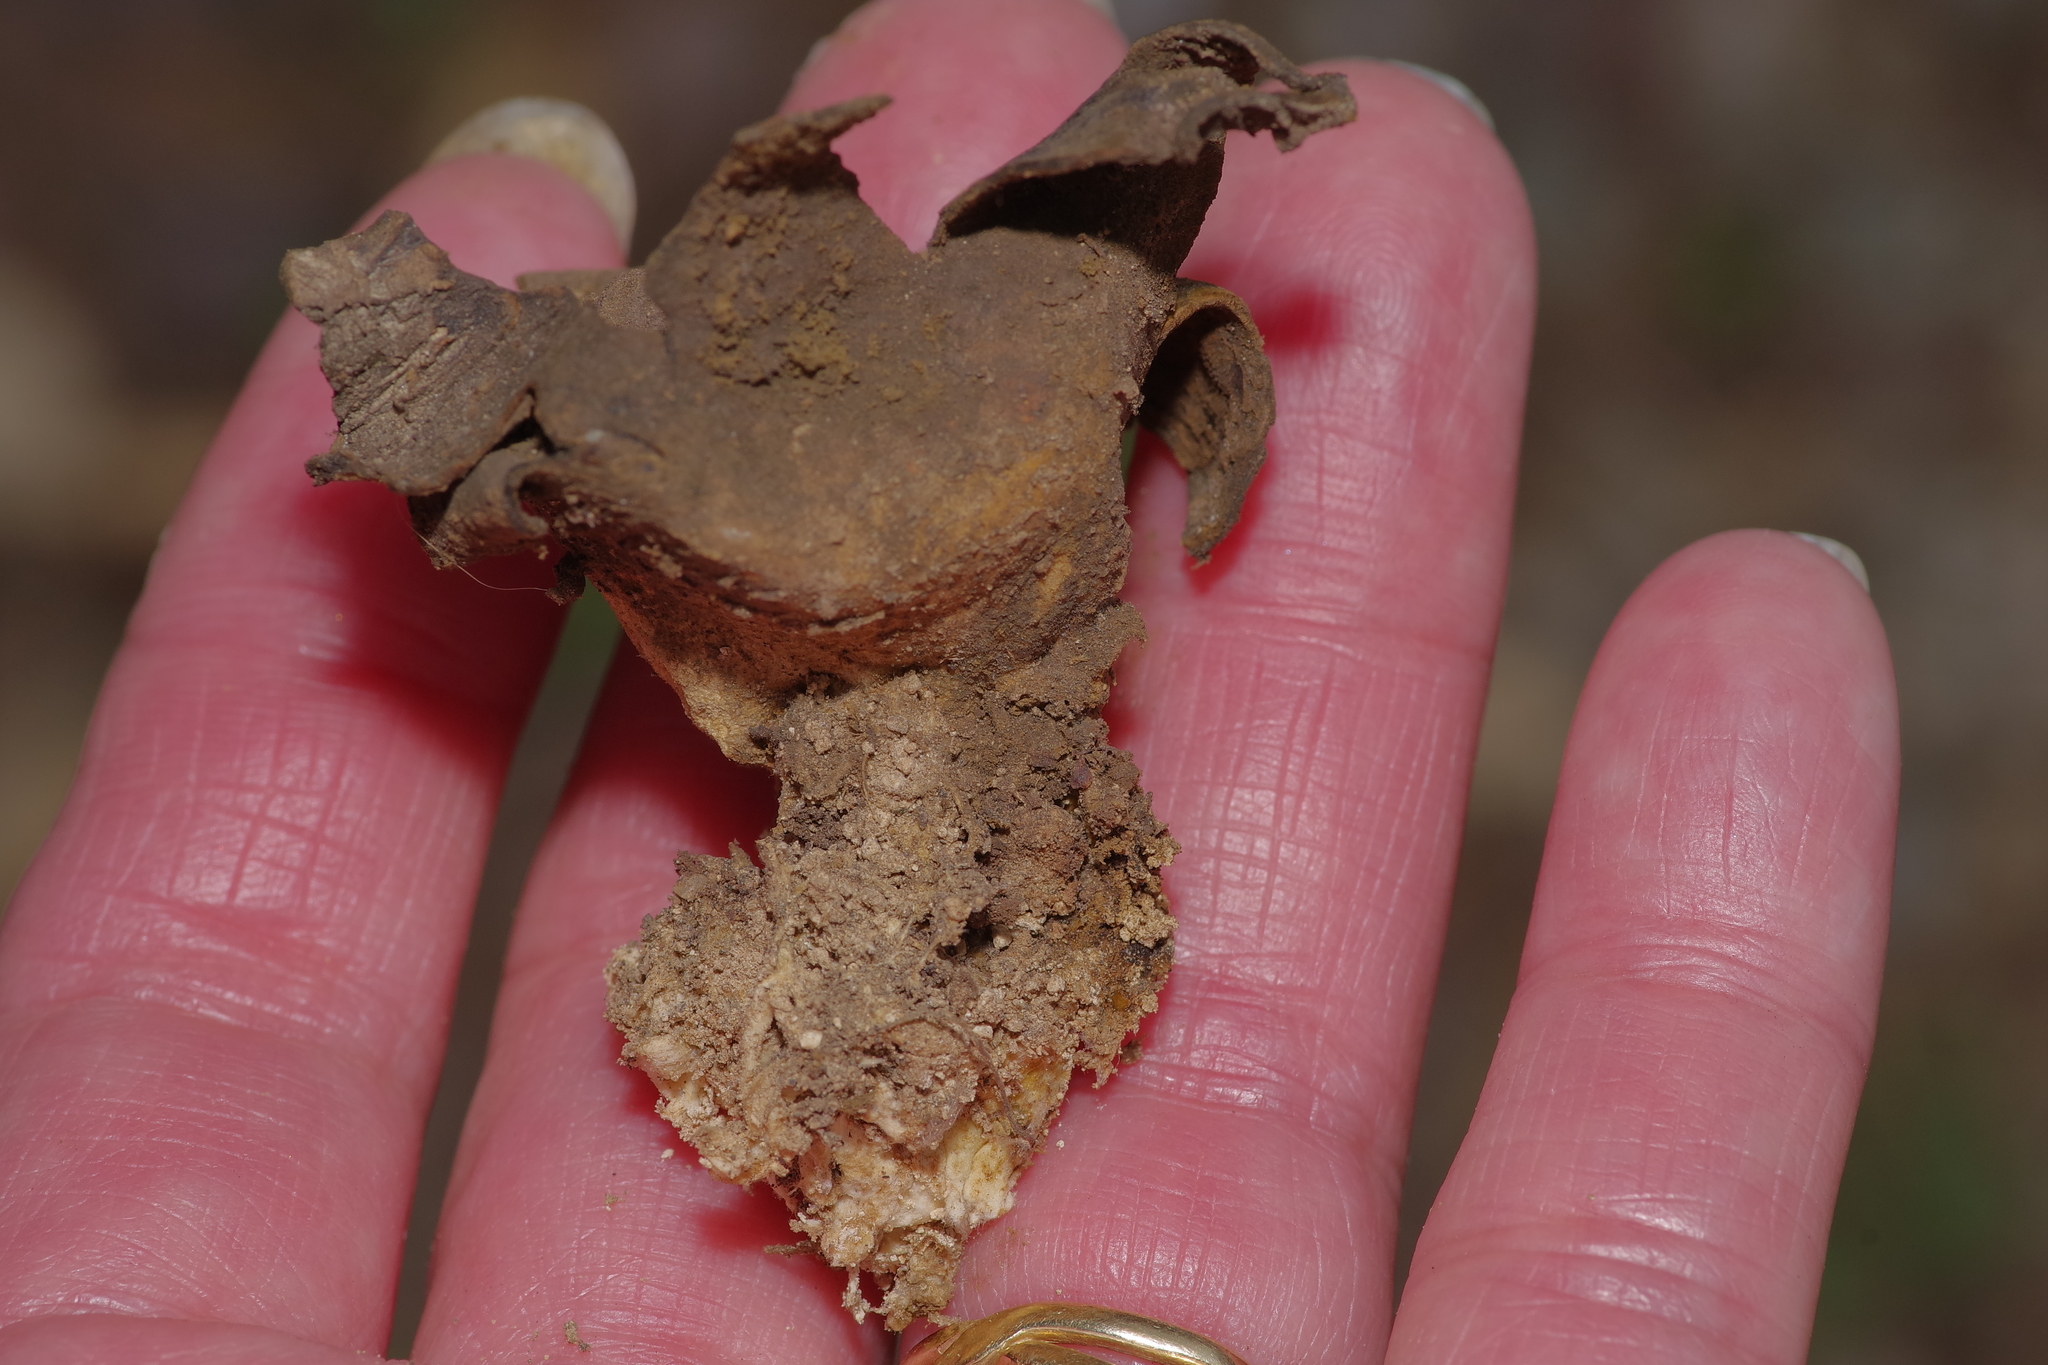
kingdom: Fungi
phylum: Basidiomycota
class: Agaricomycetes
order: Boletales
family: Sclerodermataceae
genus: Scleroderma
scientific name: Scleroderma polyrhizum
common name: Many-rooted earthball
